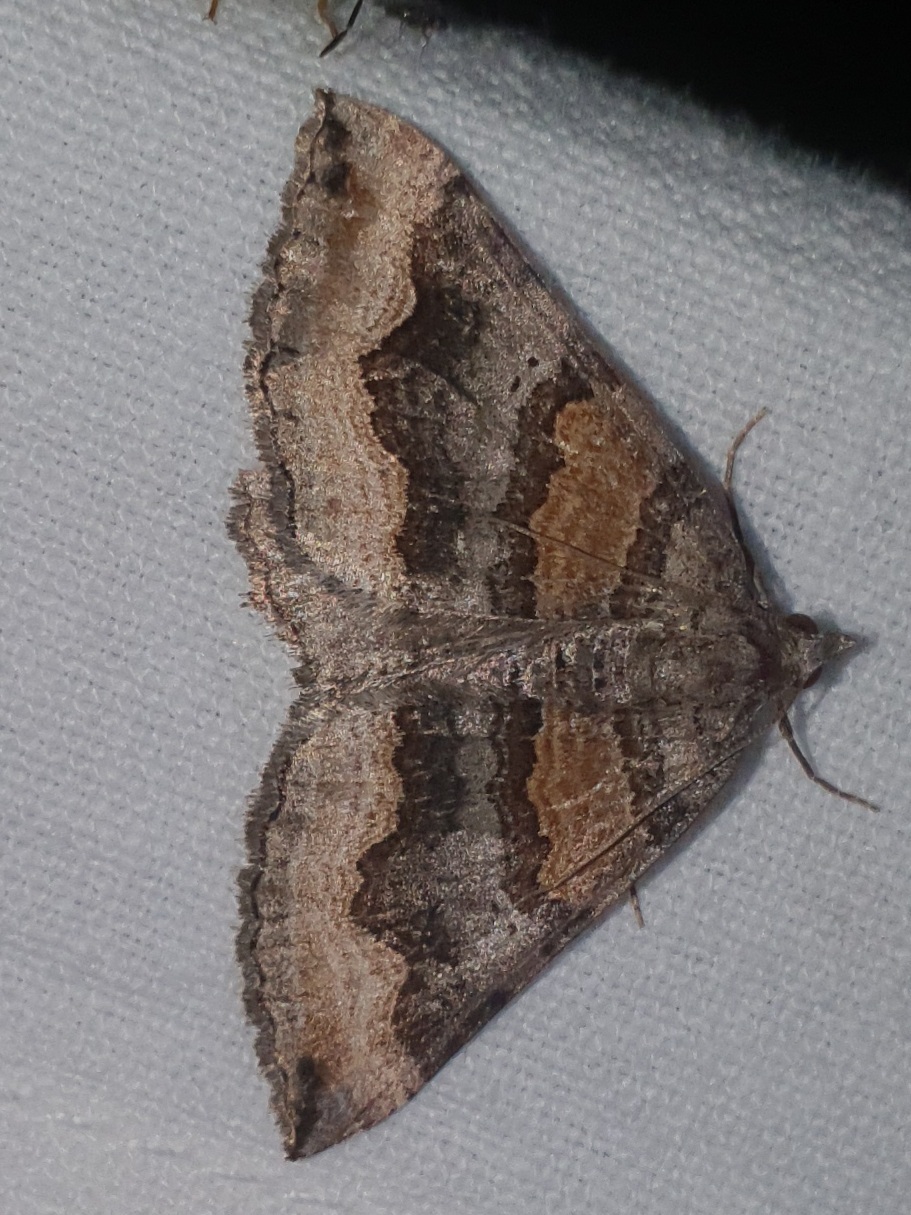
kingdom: Animalia
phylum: Arthropoda
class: Insecta
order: Lepidoptera
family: Geometridae
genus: Scotopteryx
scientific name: Scotopteryx coelinaria
